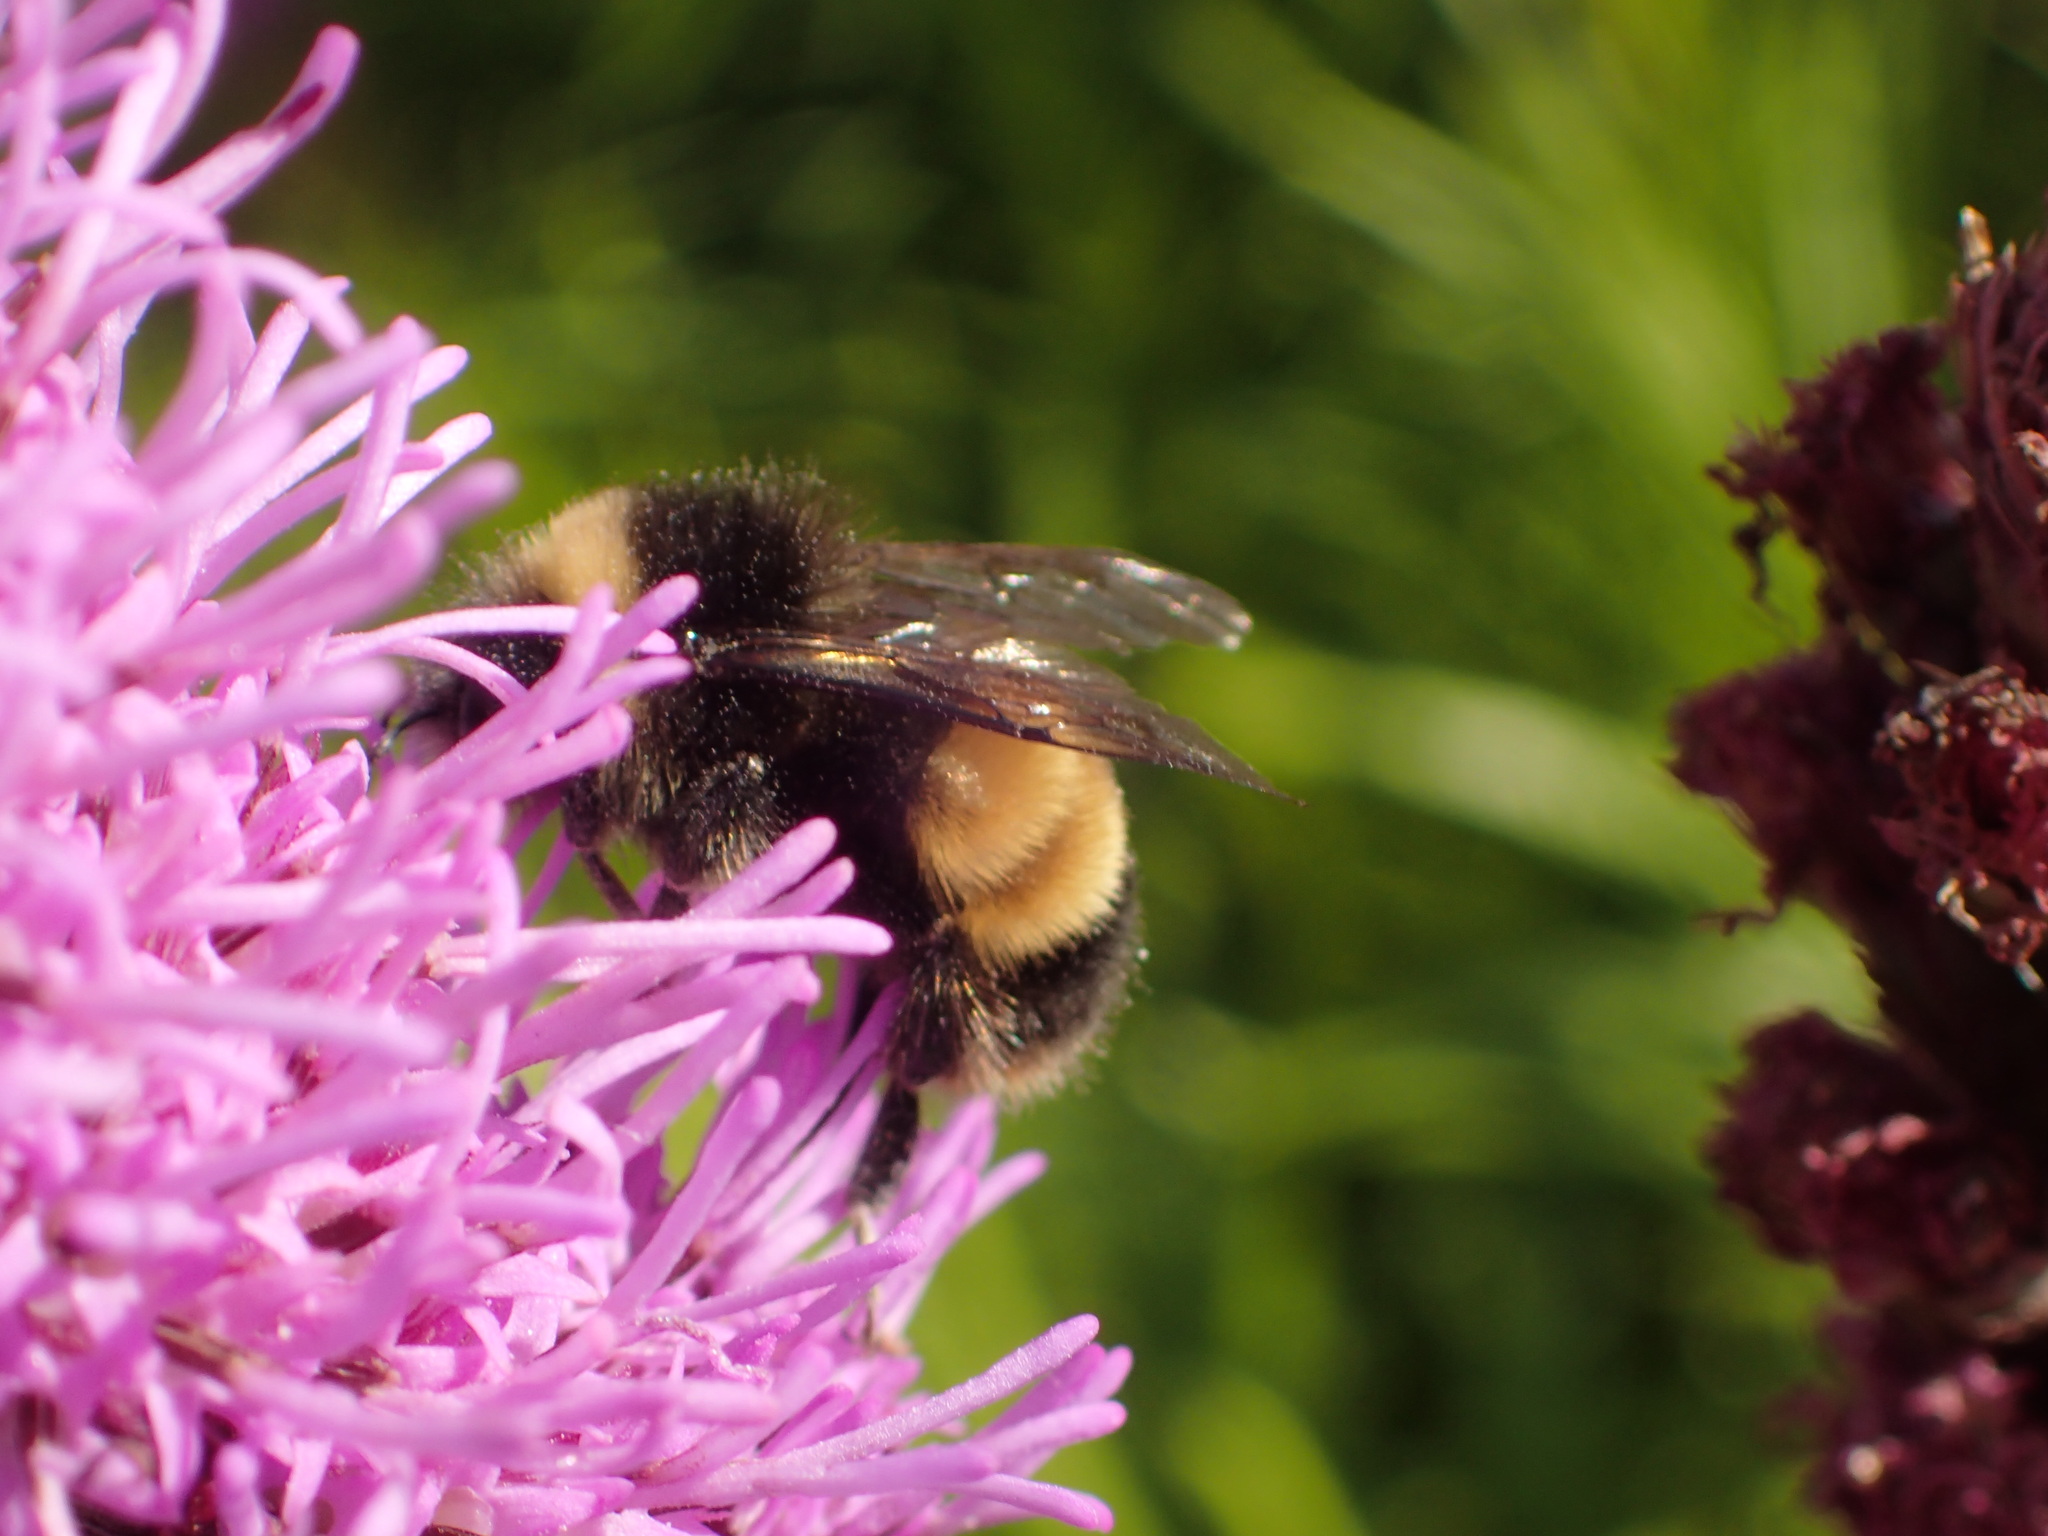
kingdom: Animalia
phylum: Arthropoda
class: Insecta
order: Hymenoptera
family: Apidae
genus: Bombus
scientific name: Bombus terricola
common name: Yellow-banded bumble bee
